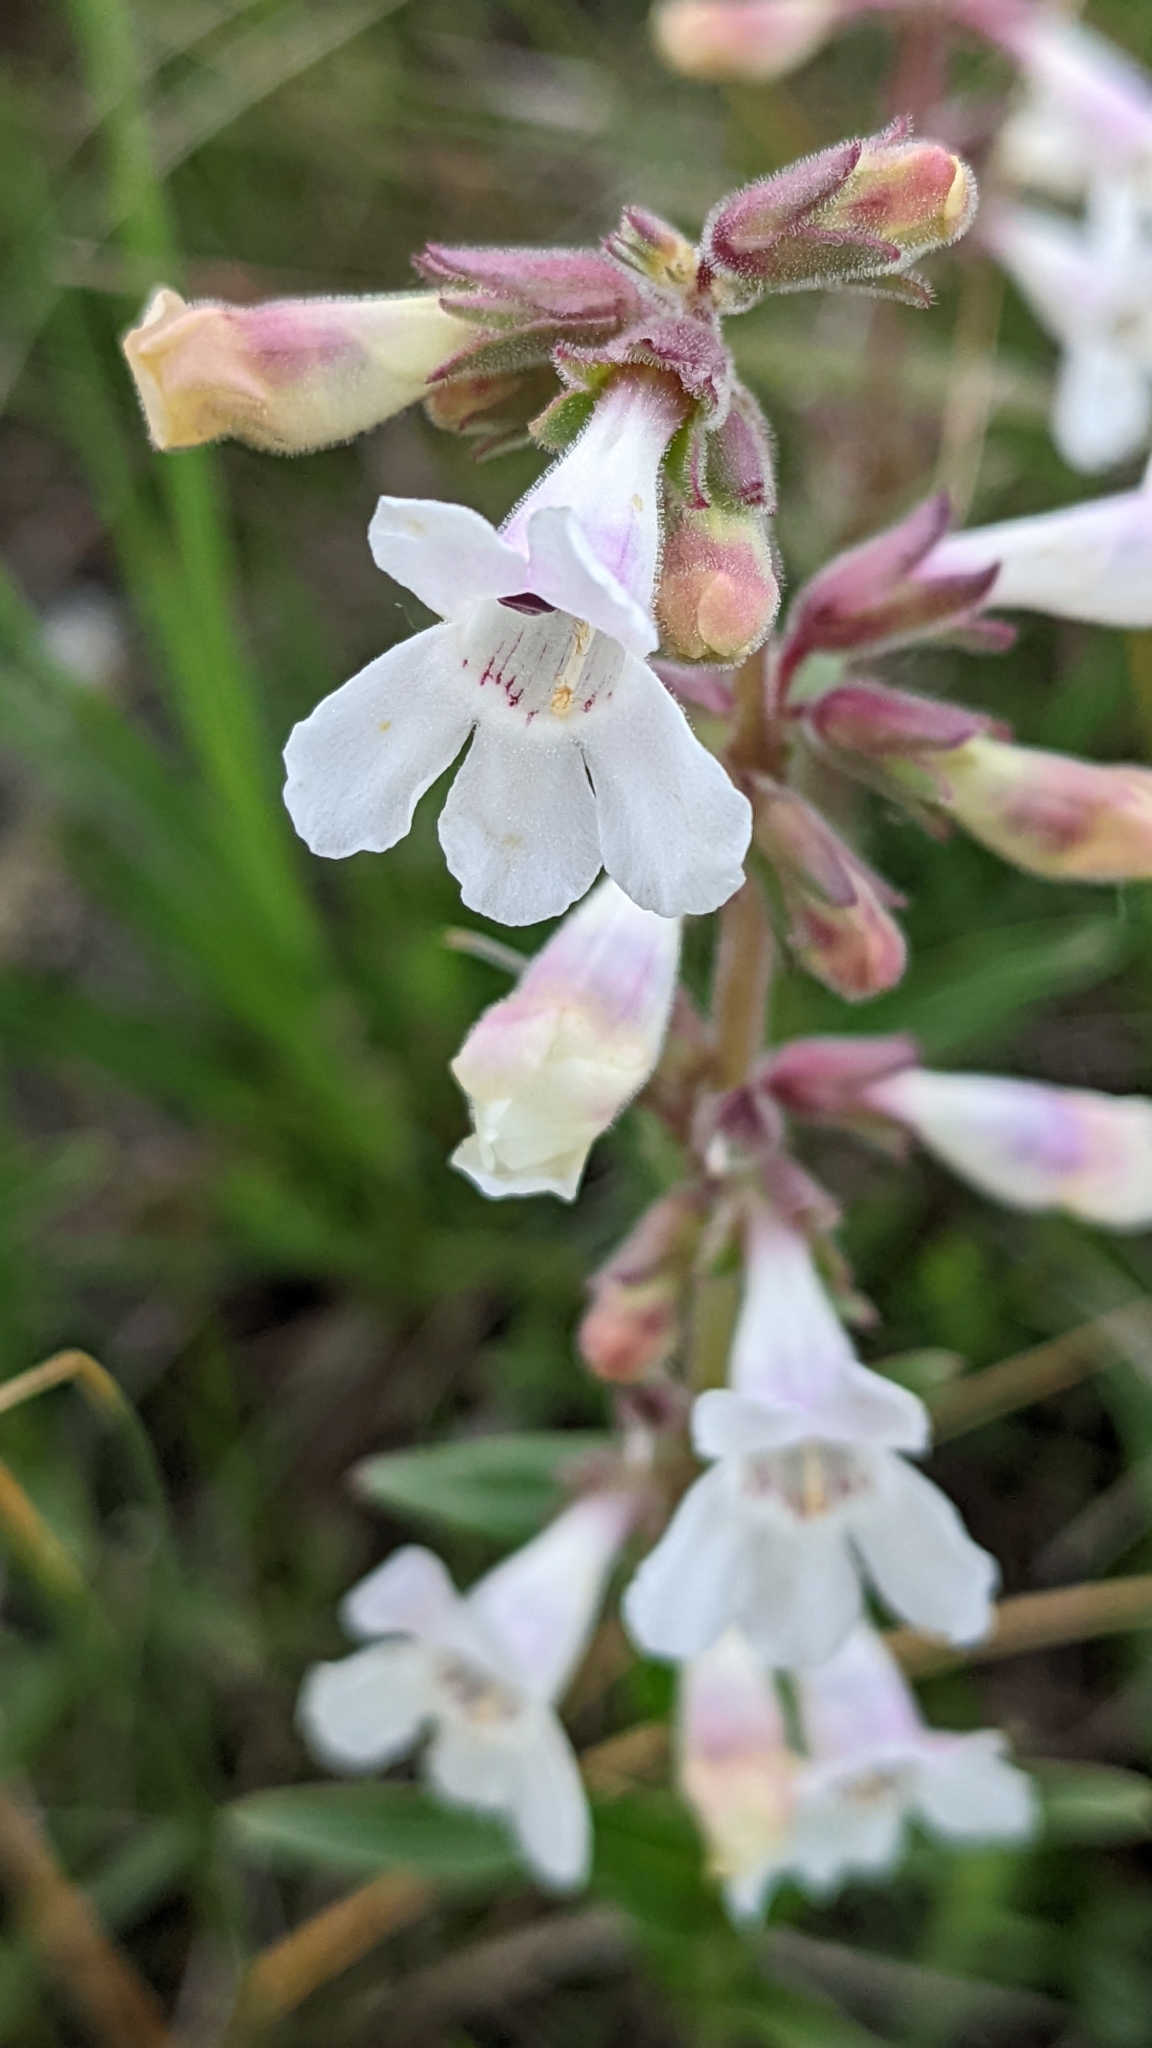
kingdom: Plantae
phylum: Tracheophyta
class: Magnoliopsida
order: Lamiales
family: Plantaginaceae
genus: Penstemon
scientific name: Penstemon albidus
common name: White beardtongue
